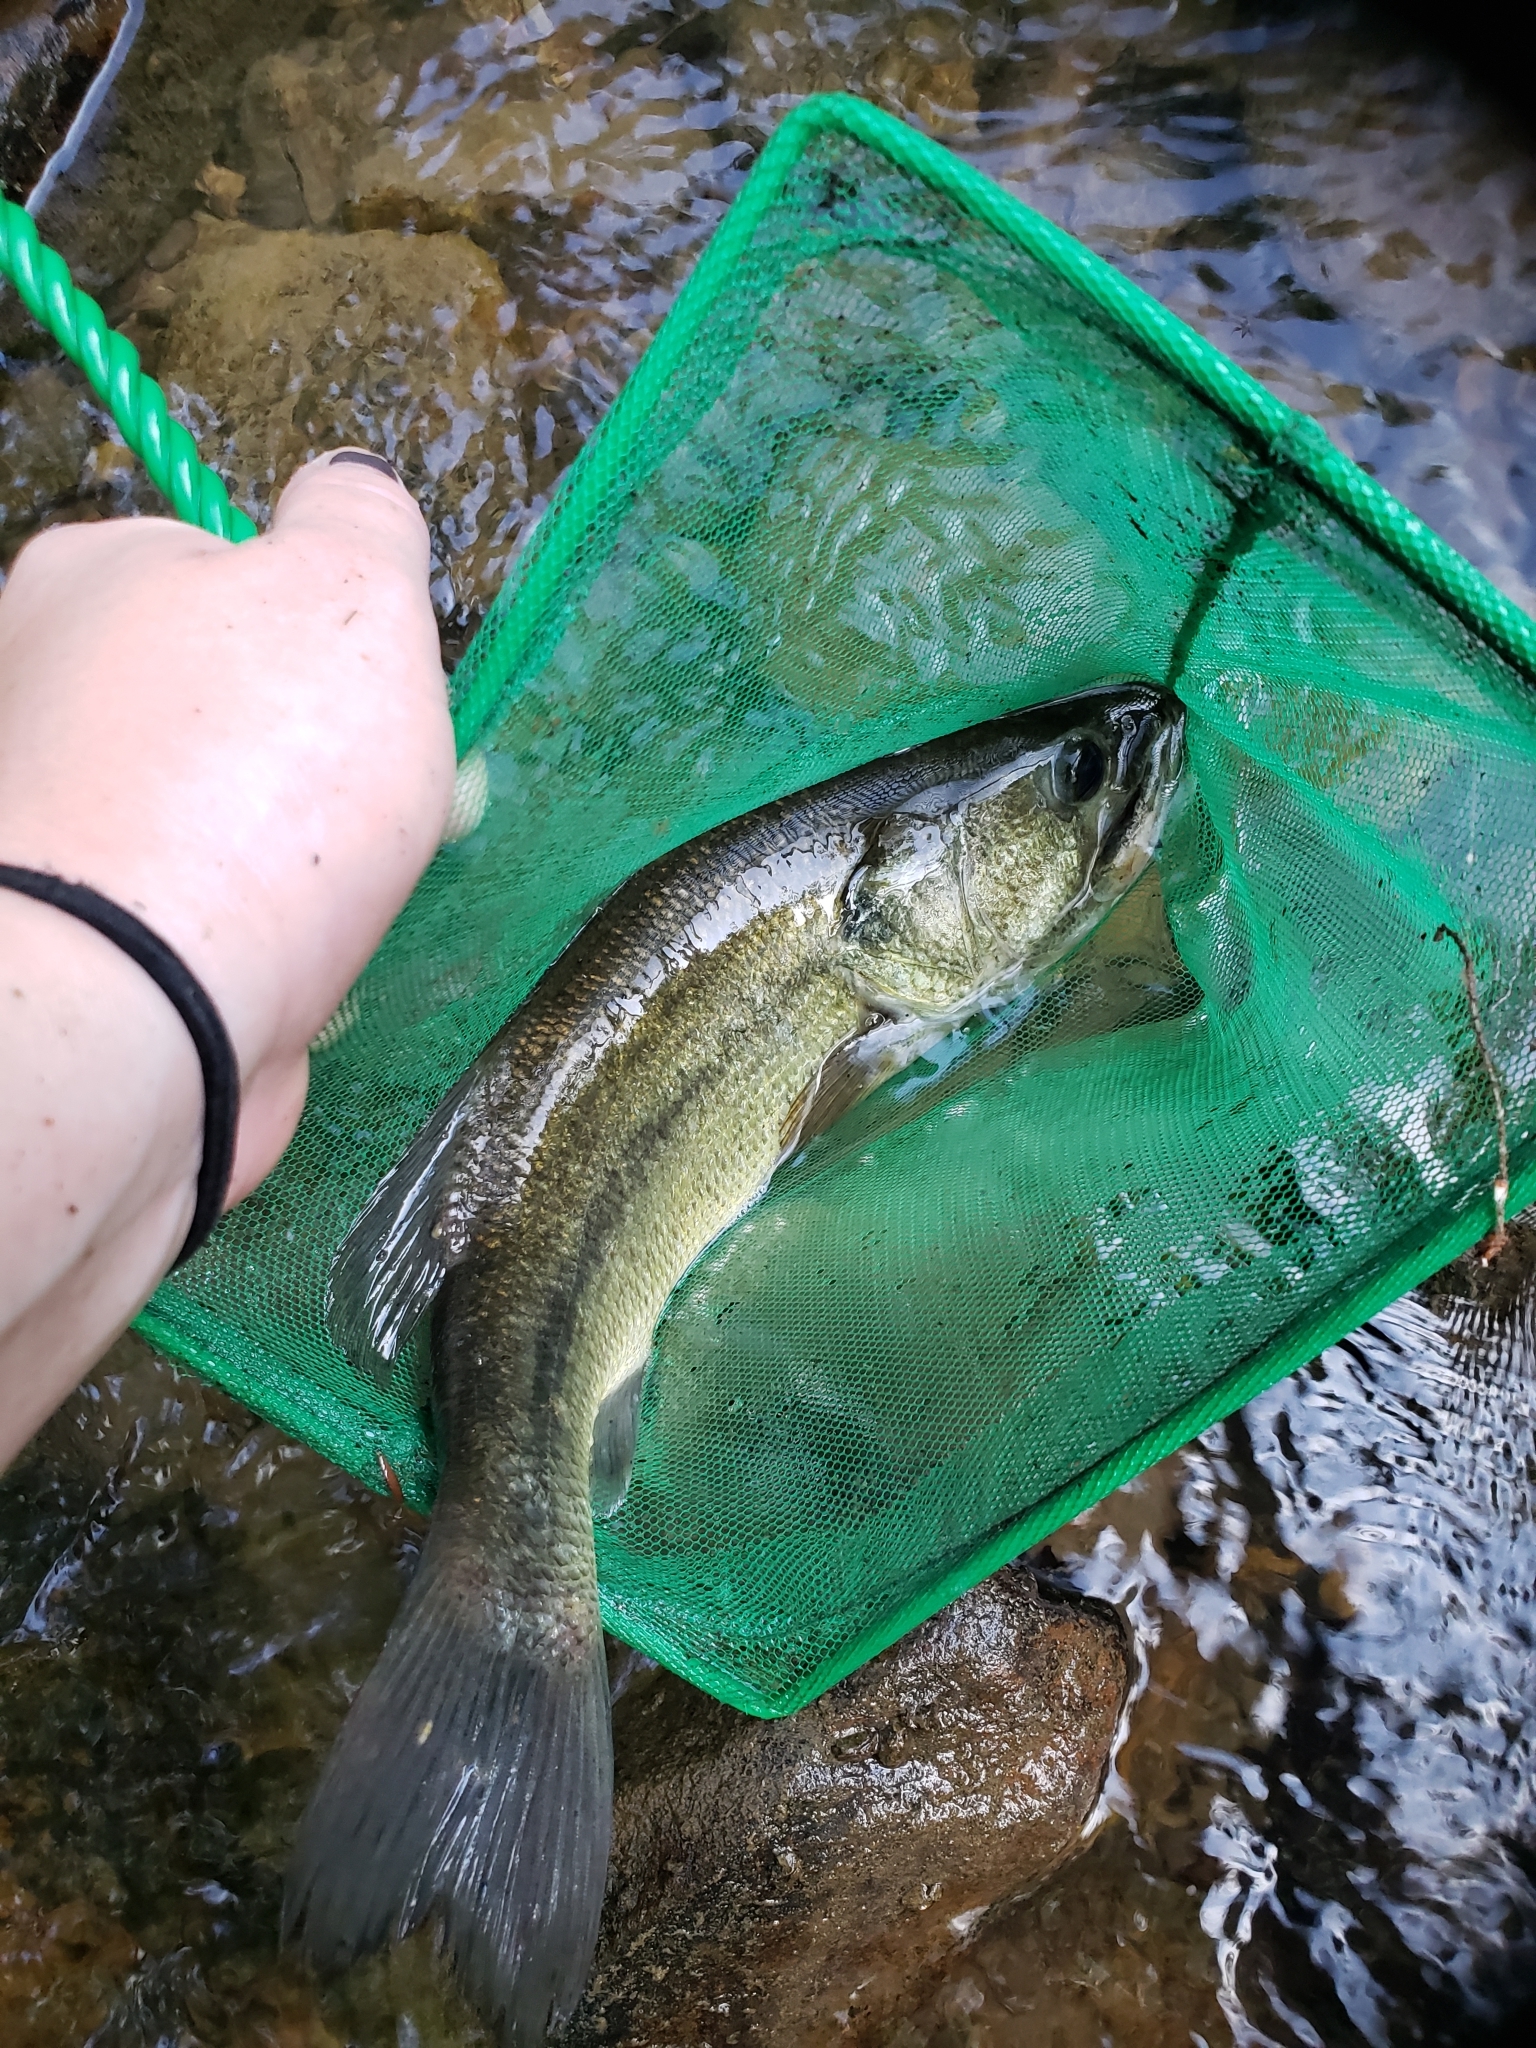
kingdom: Animalia
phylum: Chordata
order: Perciformes
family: Centrarchidae
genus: Micropterus
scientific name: Micropterus
